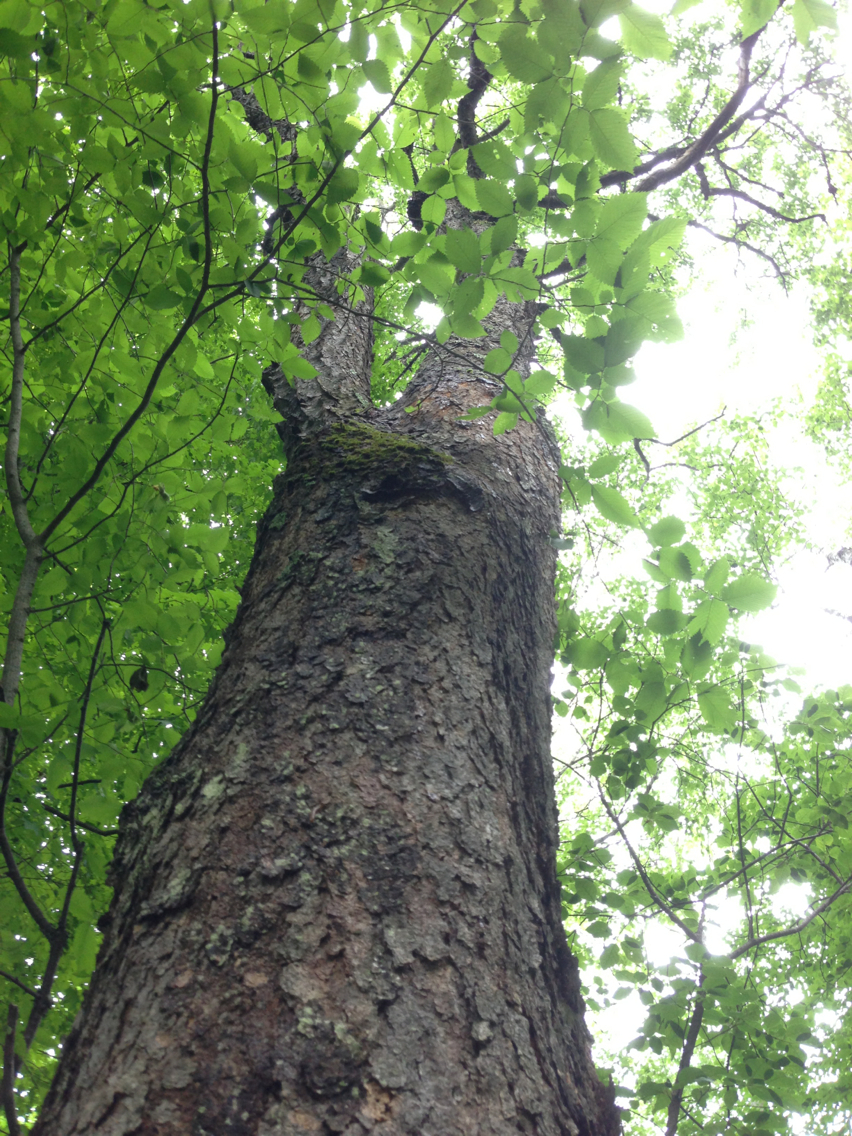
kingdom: Plantae
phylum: Tracheophyta
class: Magnoliopsida
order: Rosales
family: Rosaceae
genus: Prunus
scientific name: Prunus serotina
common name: Black cherry
